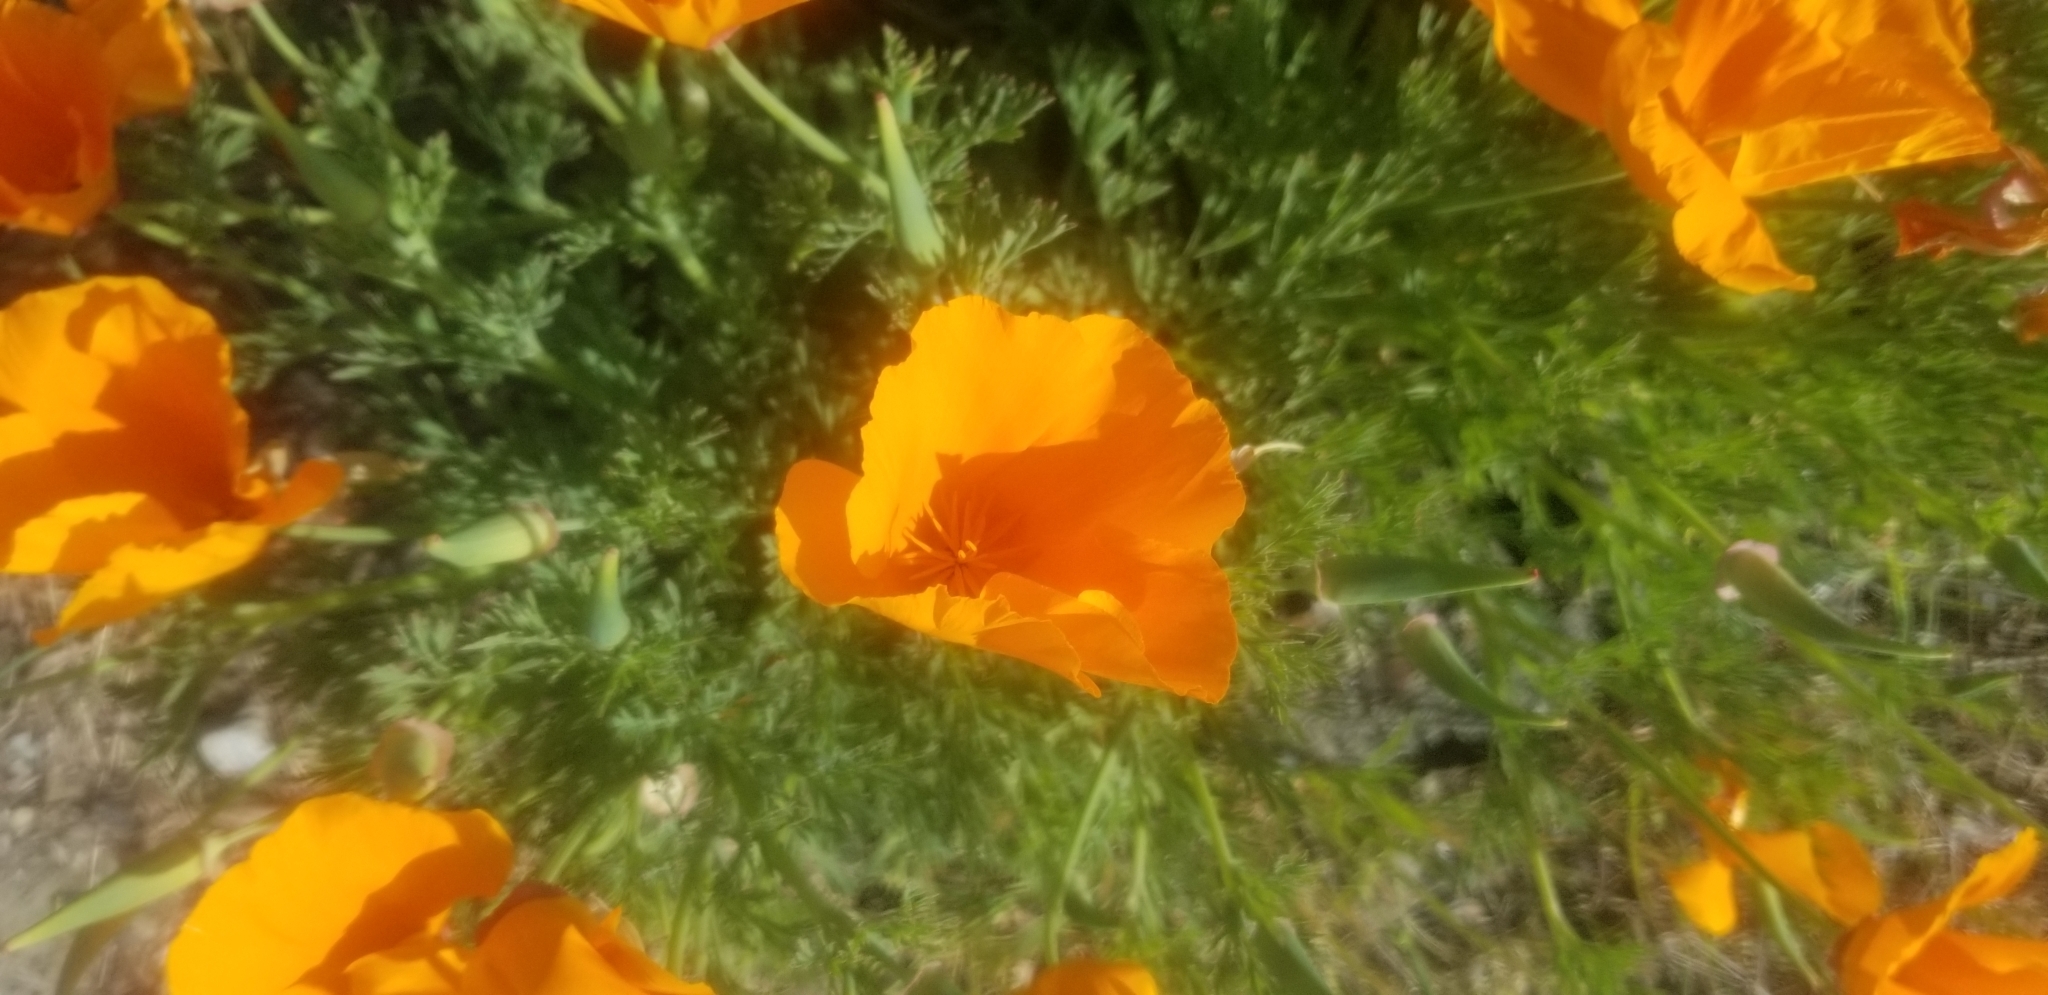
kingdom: Plantae
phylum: Tracheophyta
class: Magnoliopsida
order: Ranunculales
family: Papaveraceae
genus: Eschscholzia
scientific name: Eschscholzia californica
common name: California poppy
